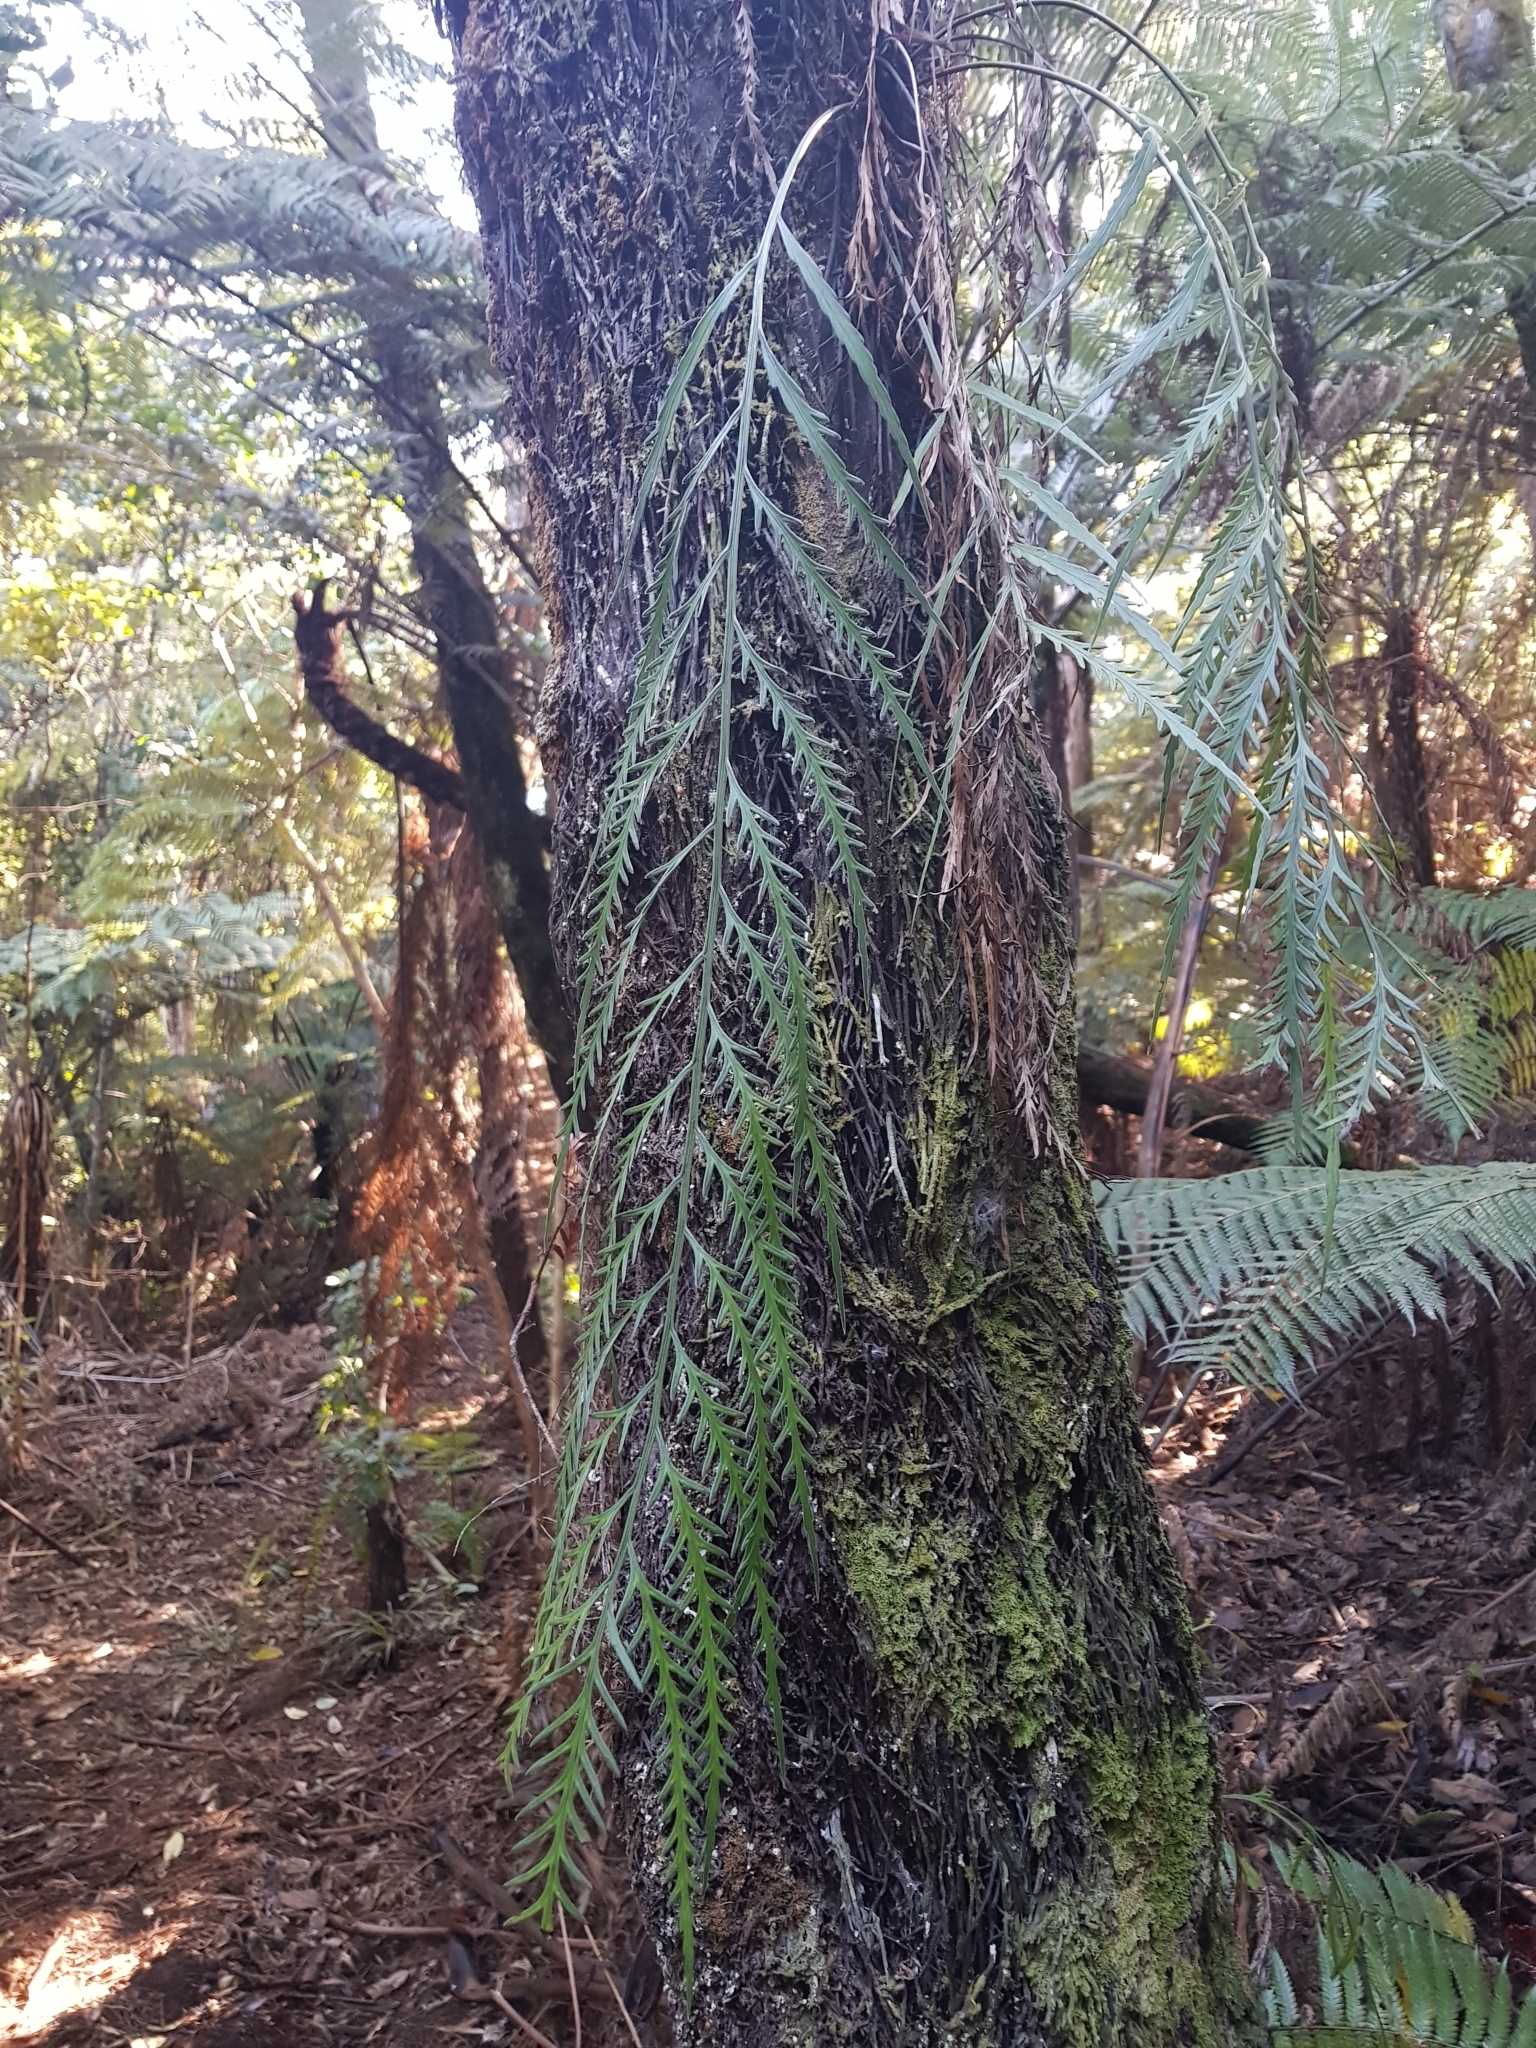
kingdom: Plantae
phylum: Tracheophyta
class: Polypodiopsida
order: Polypodiales
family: Aspleniaceae
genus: Asplenium
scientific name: Asplenium flaccidum
